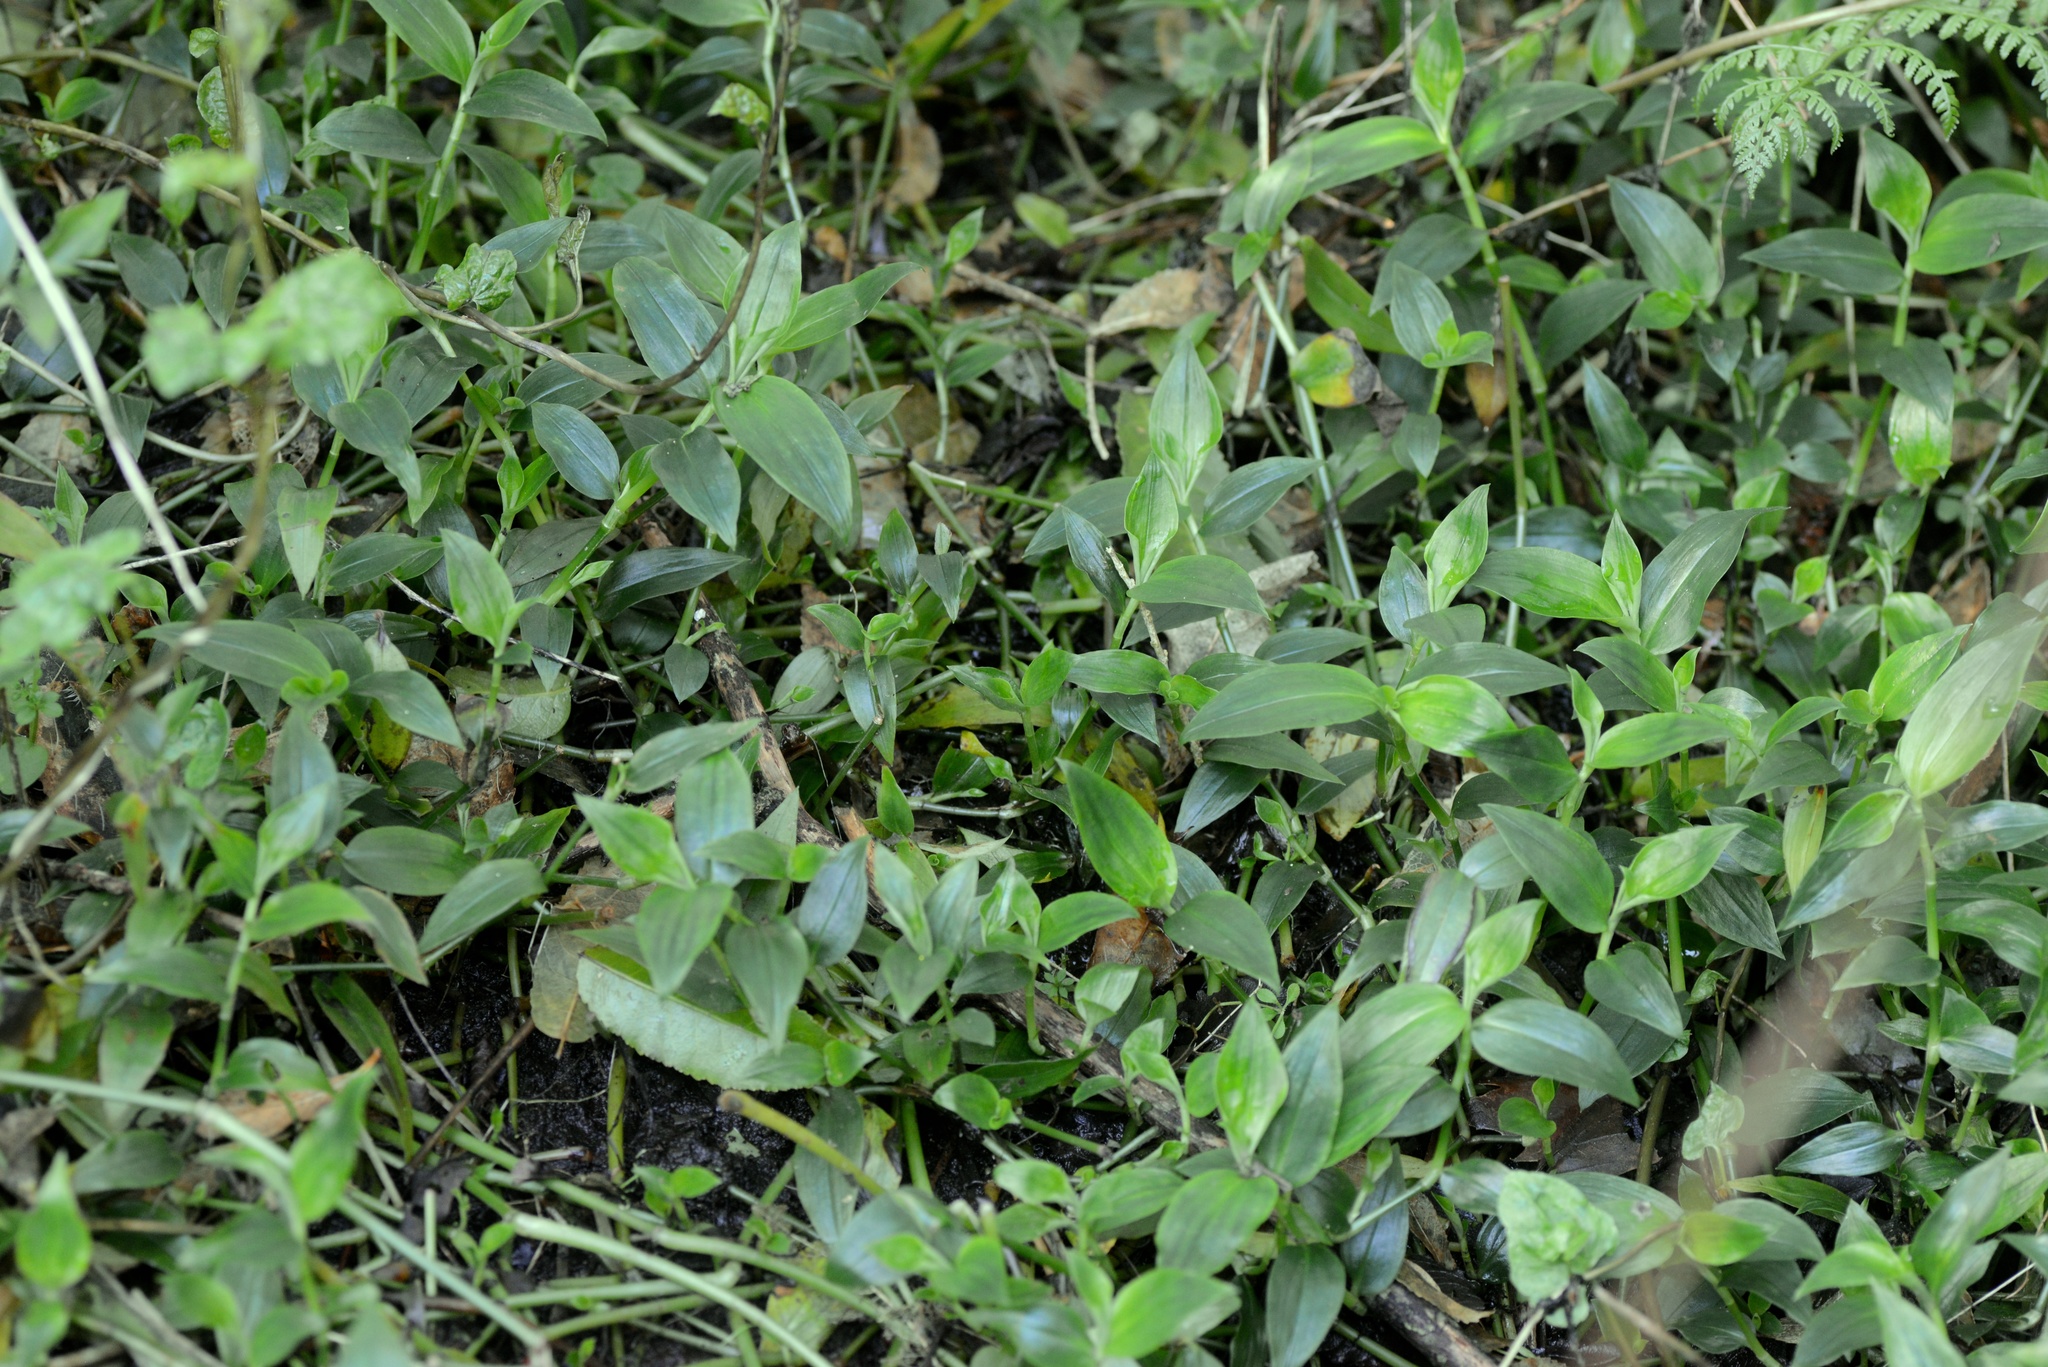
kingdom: Plantae
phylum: Tracheophyta
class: Liliopsida
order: Commelinales
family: Commelinaceae
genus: Tradescantia
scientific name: Tradescantia fluminensis
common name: Wandering-jew
